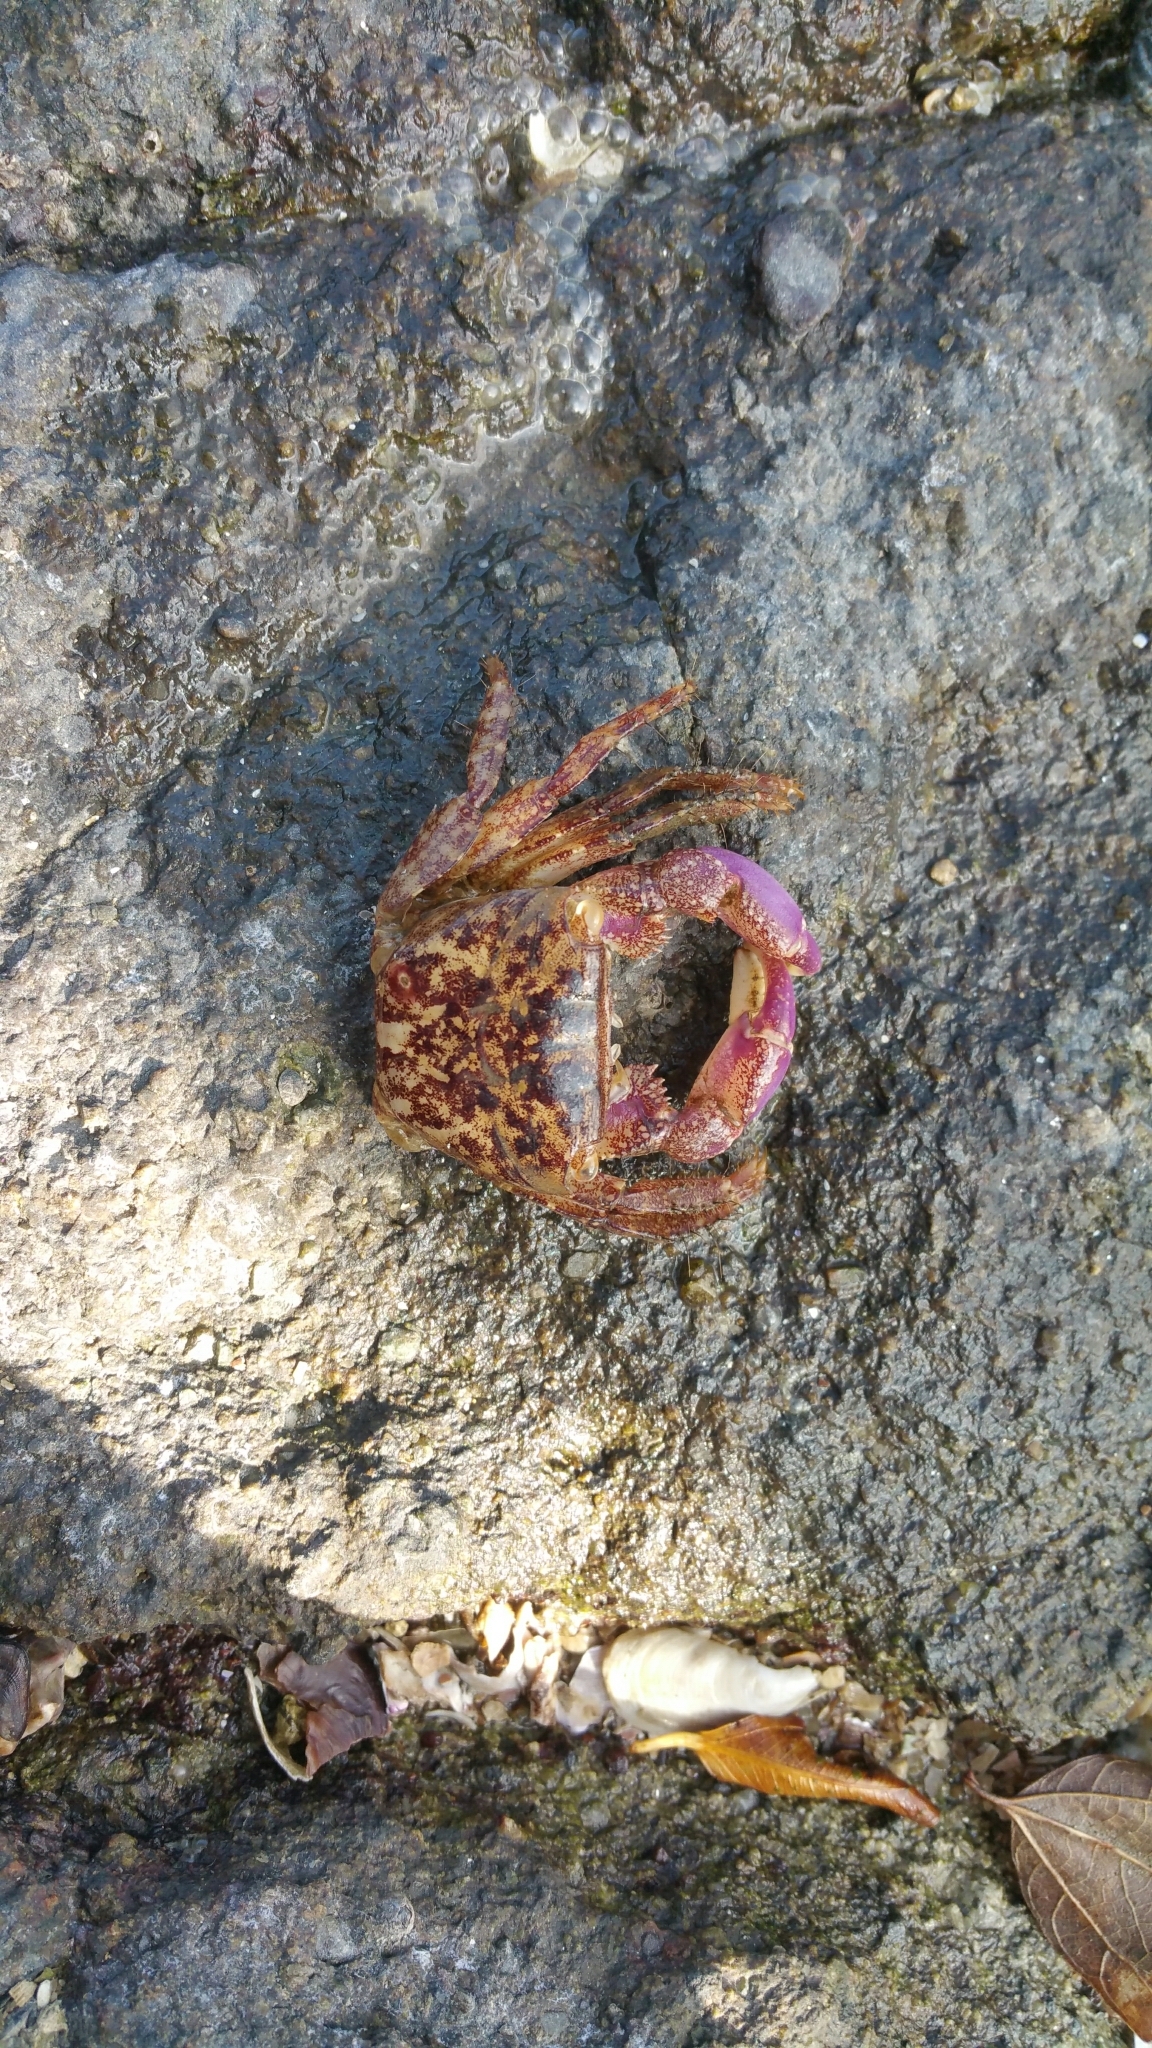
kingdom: Animalia
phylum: Arthropoda
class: Malacostraca
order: Decapoda
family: Grapsidae
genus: Metopograpsus
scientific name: Metopograpsus frontalis
